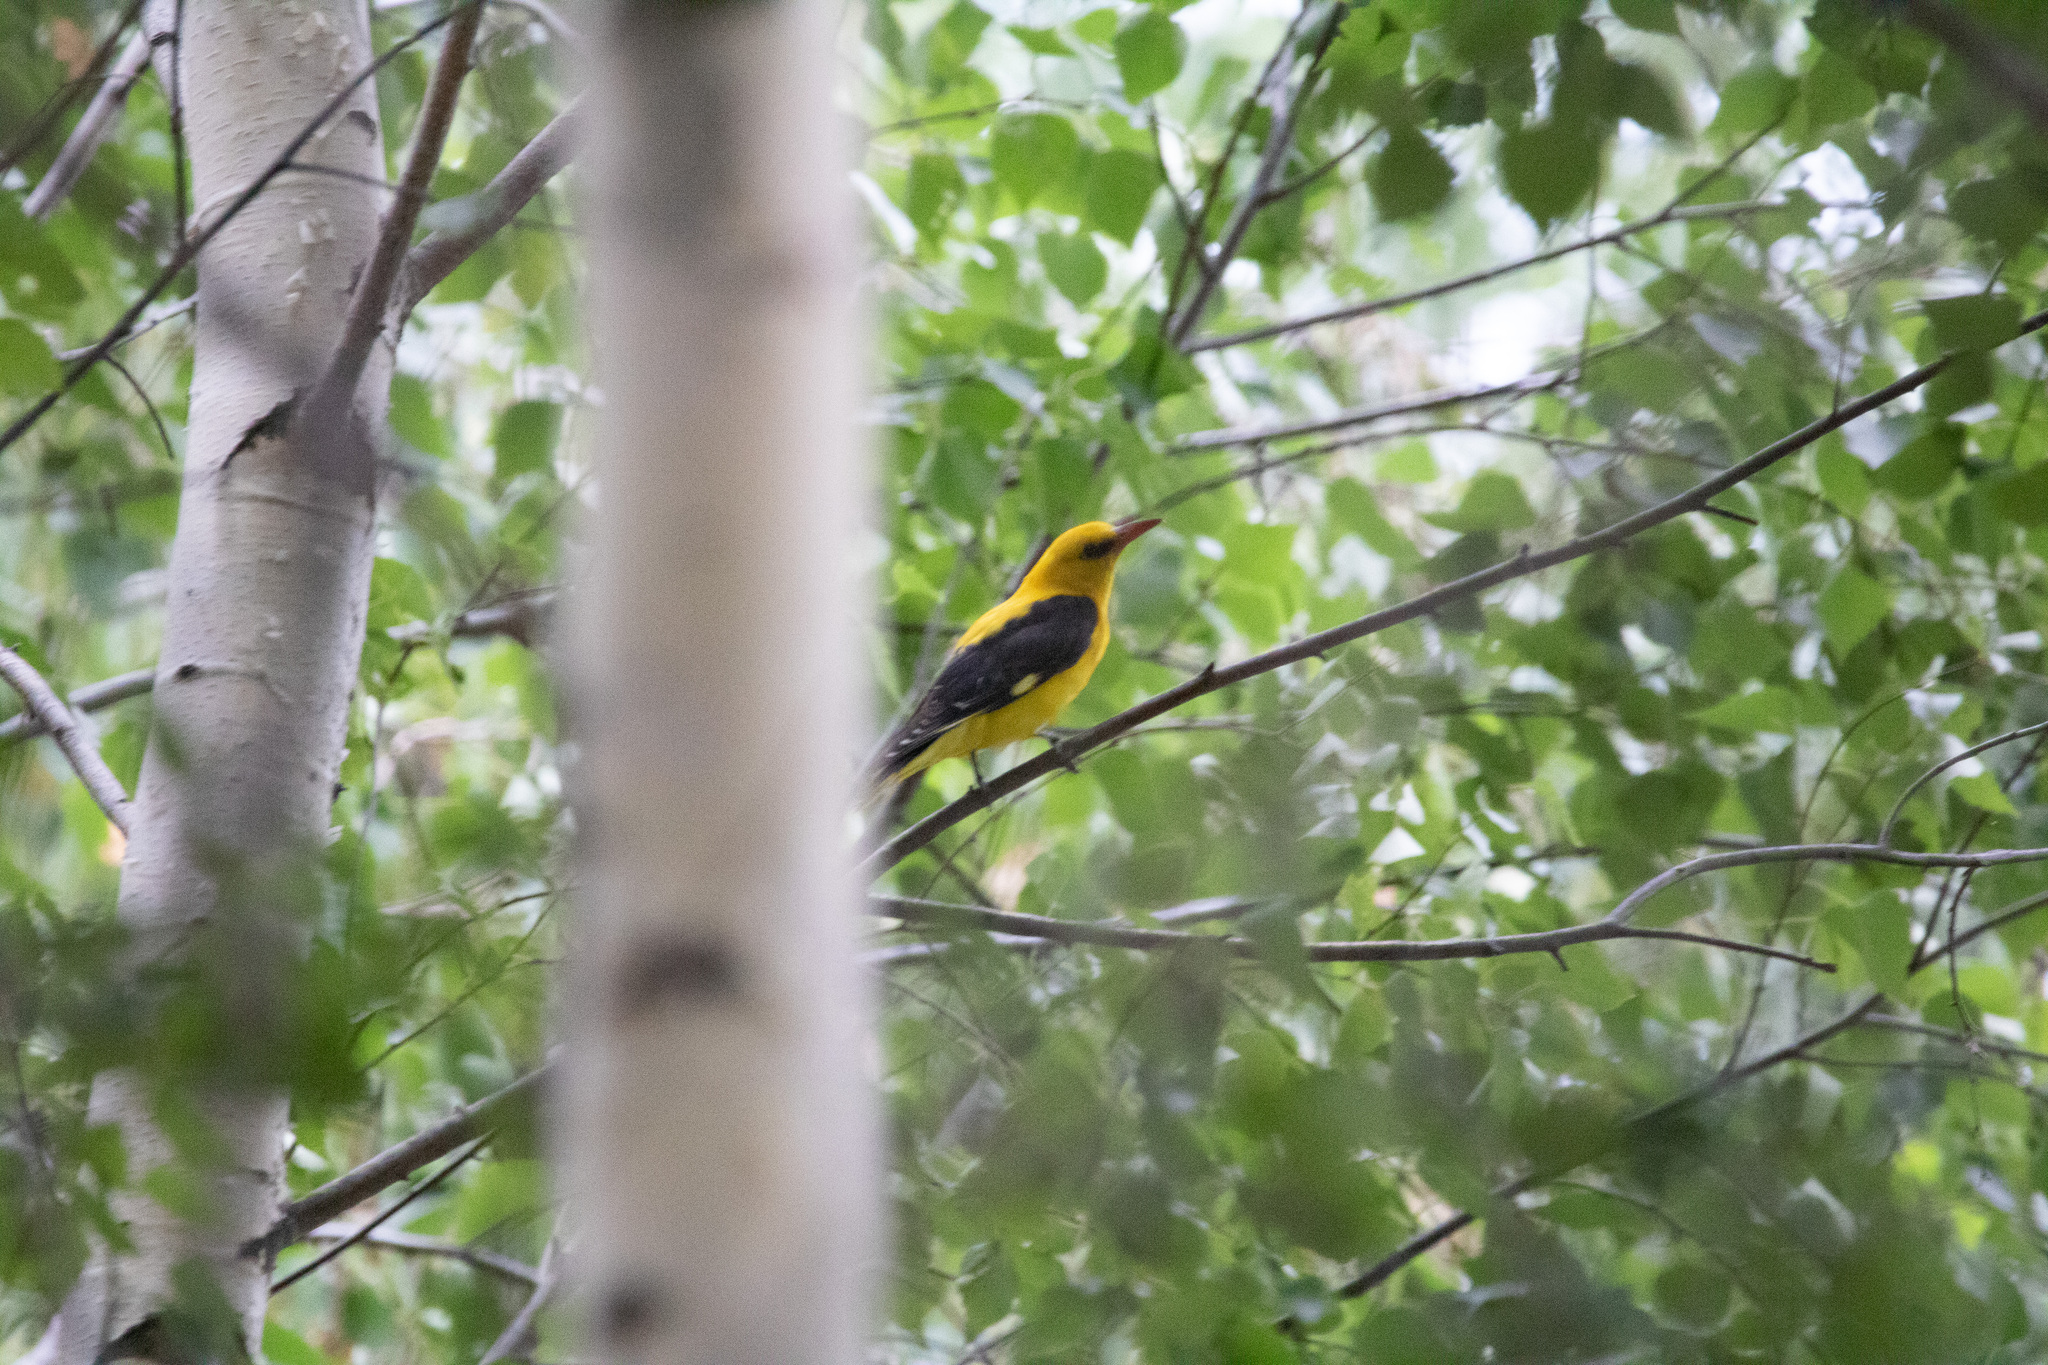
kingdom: Animalia
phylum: Chordata
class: Aves
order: Passeriformes
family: Oriolidae
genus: Oriolus
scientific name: Oriolus oriolus
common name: Eurasian golden oriole
